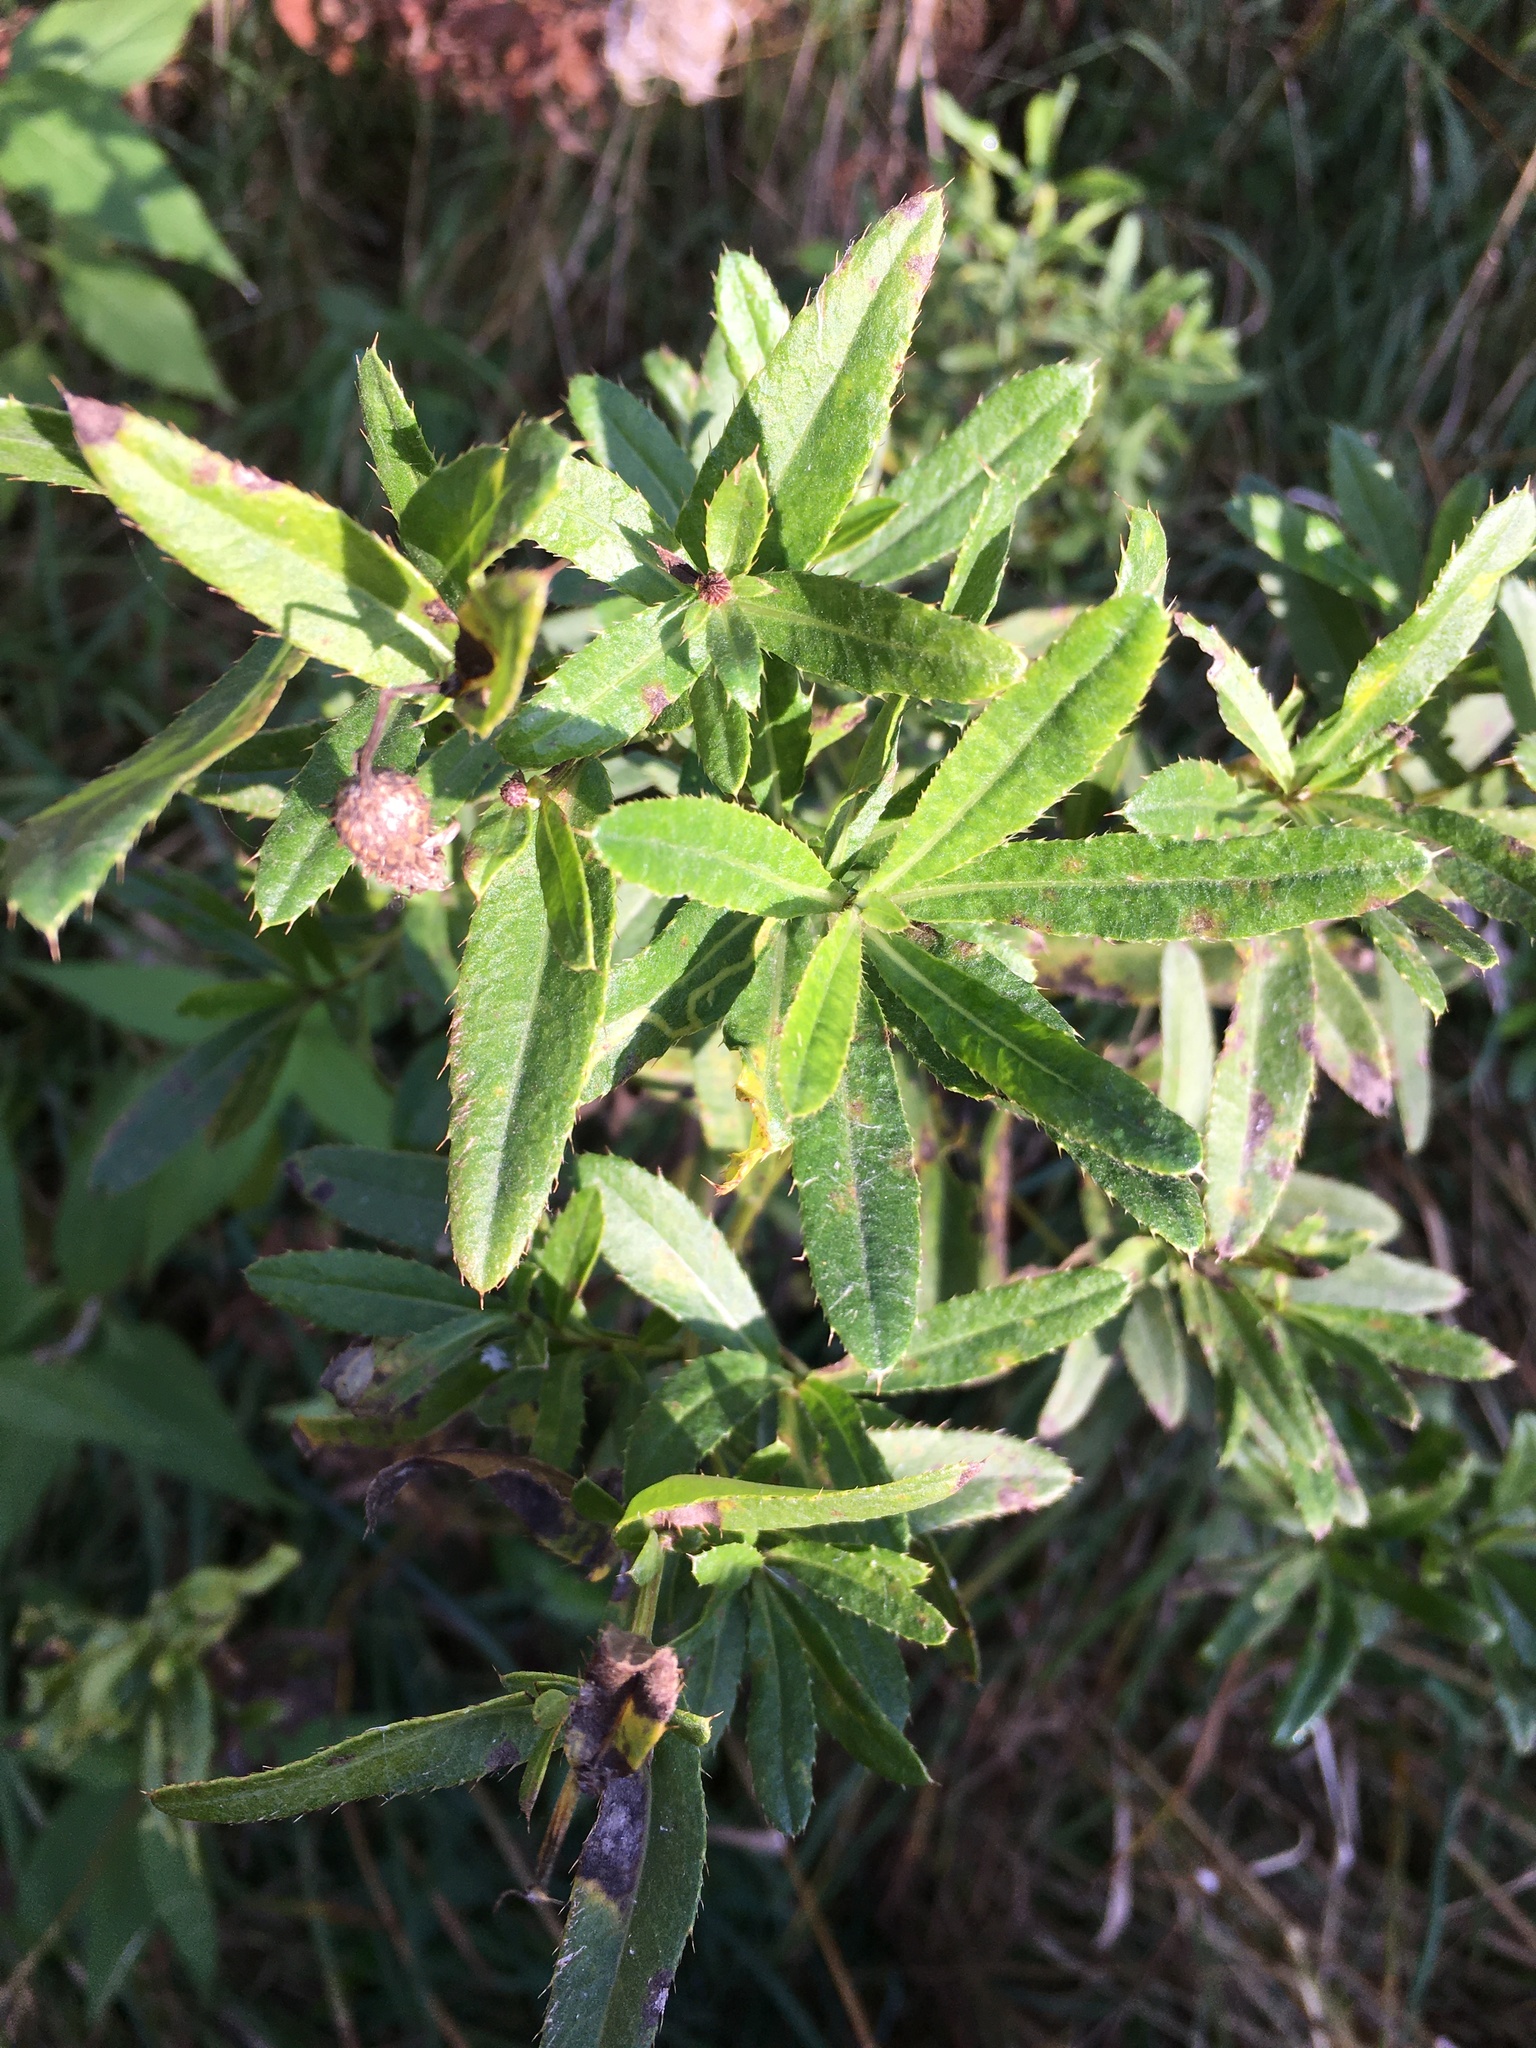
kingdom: Plantae
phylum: Tracheophyta
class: Magnoliopsida
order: Asterales
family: Asteraceae
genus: Cirsium
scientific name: Cirsium arvense
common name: Creeping thistle
